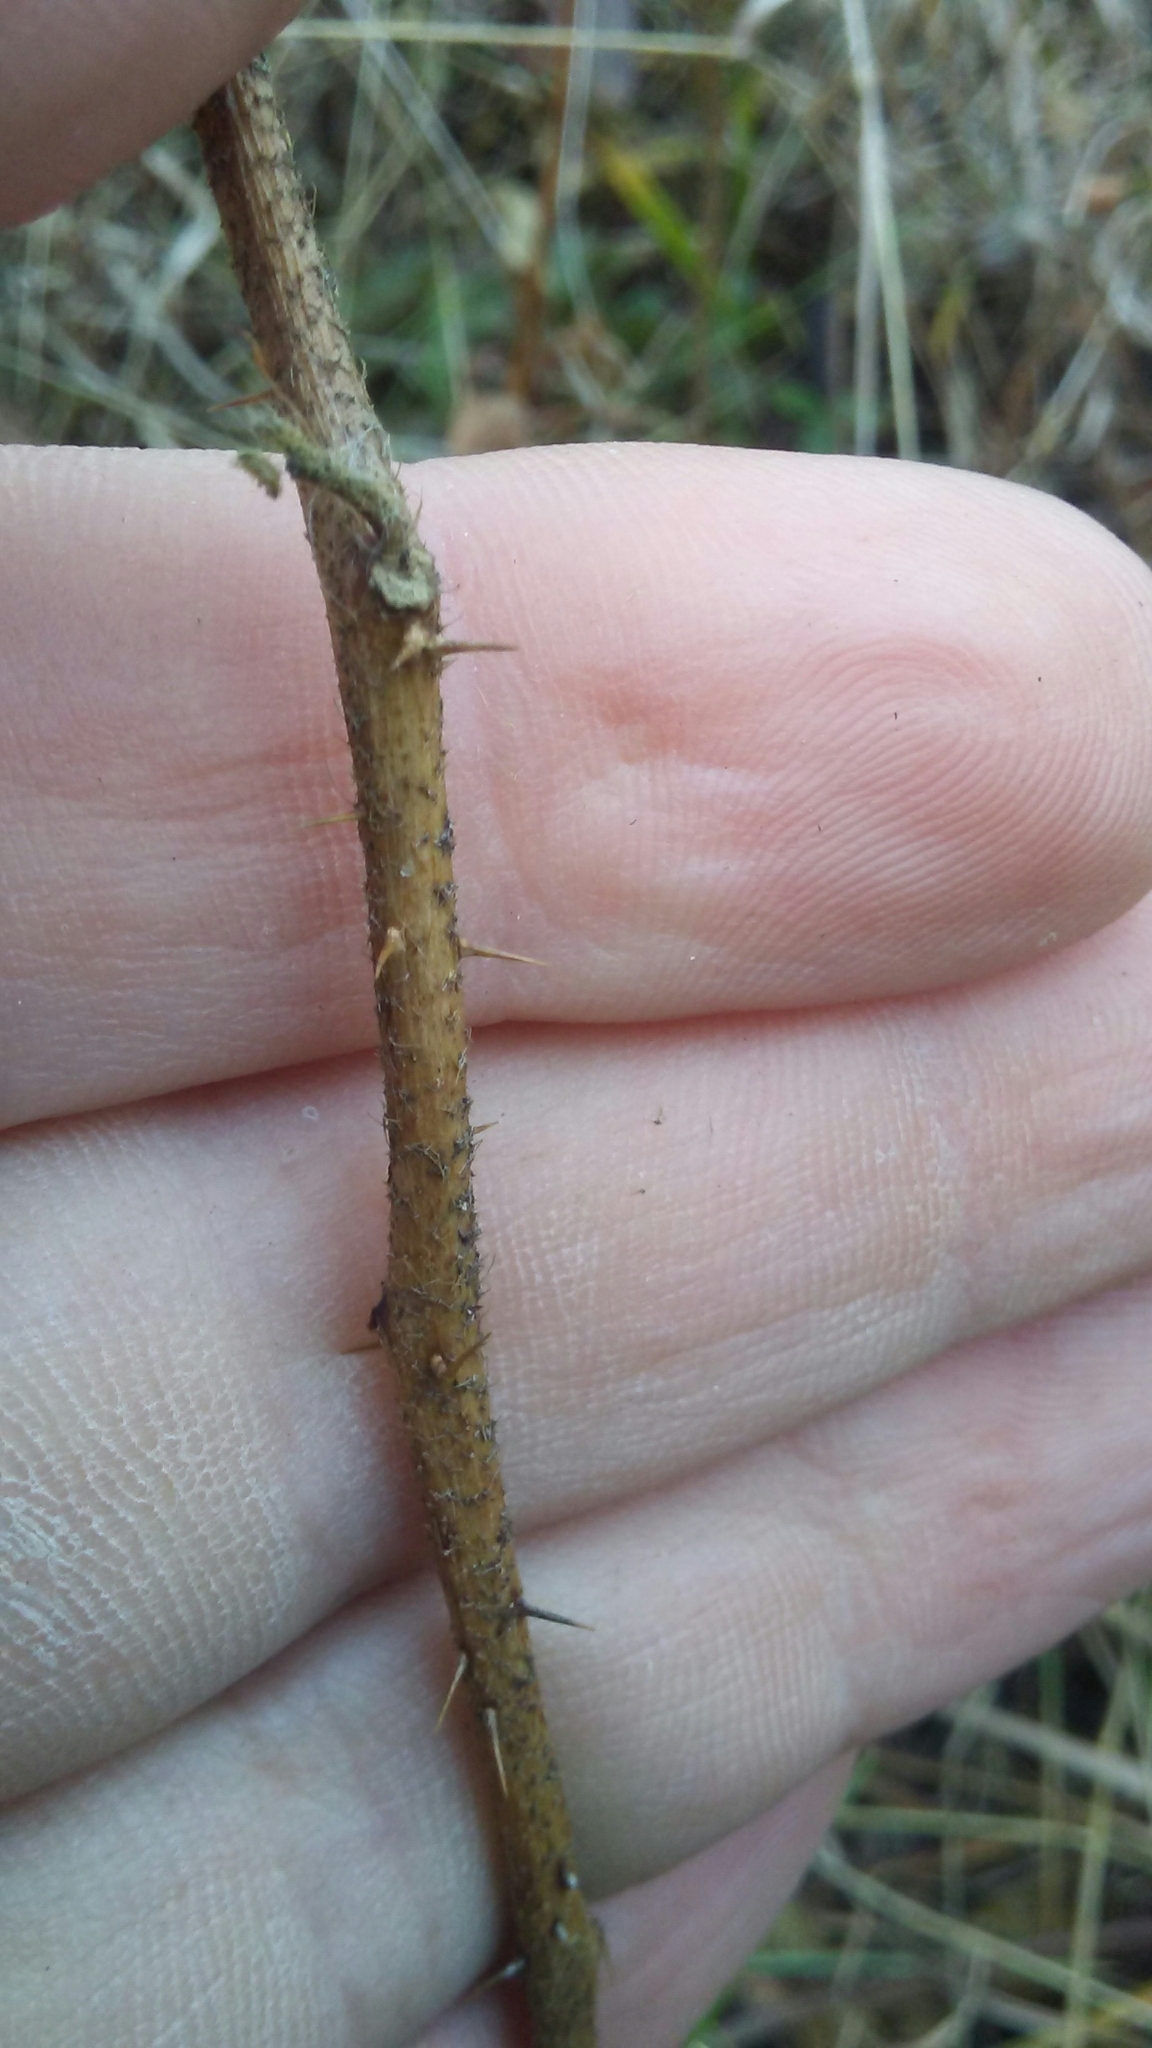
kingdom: Plantae
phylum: Tracheophyta
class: Magnoliopsida
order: Solanales
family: Solanaceae
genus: Solanum
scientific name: Solanum carolinense
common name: Horse-nettle
